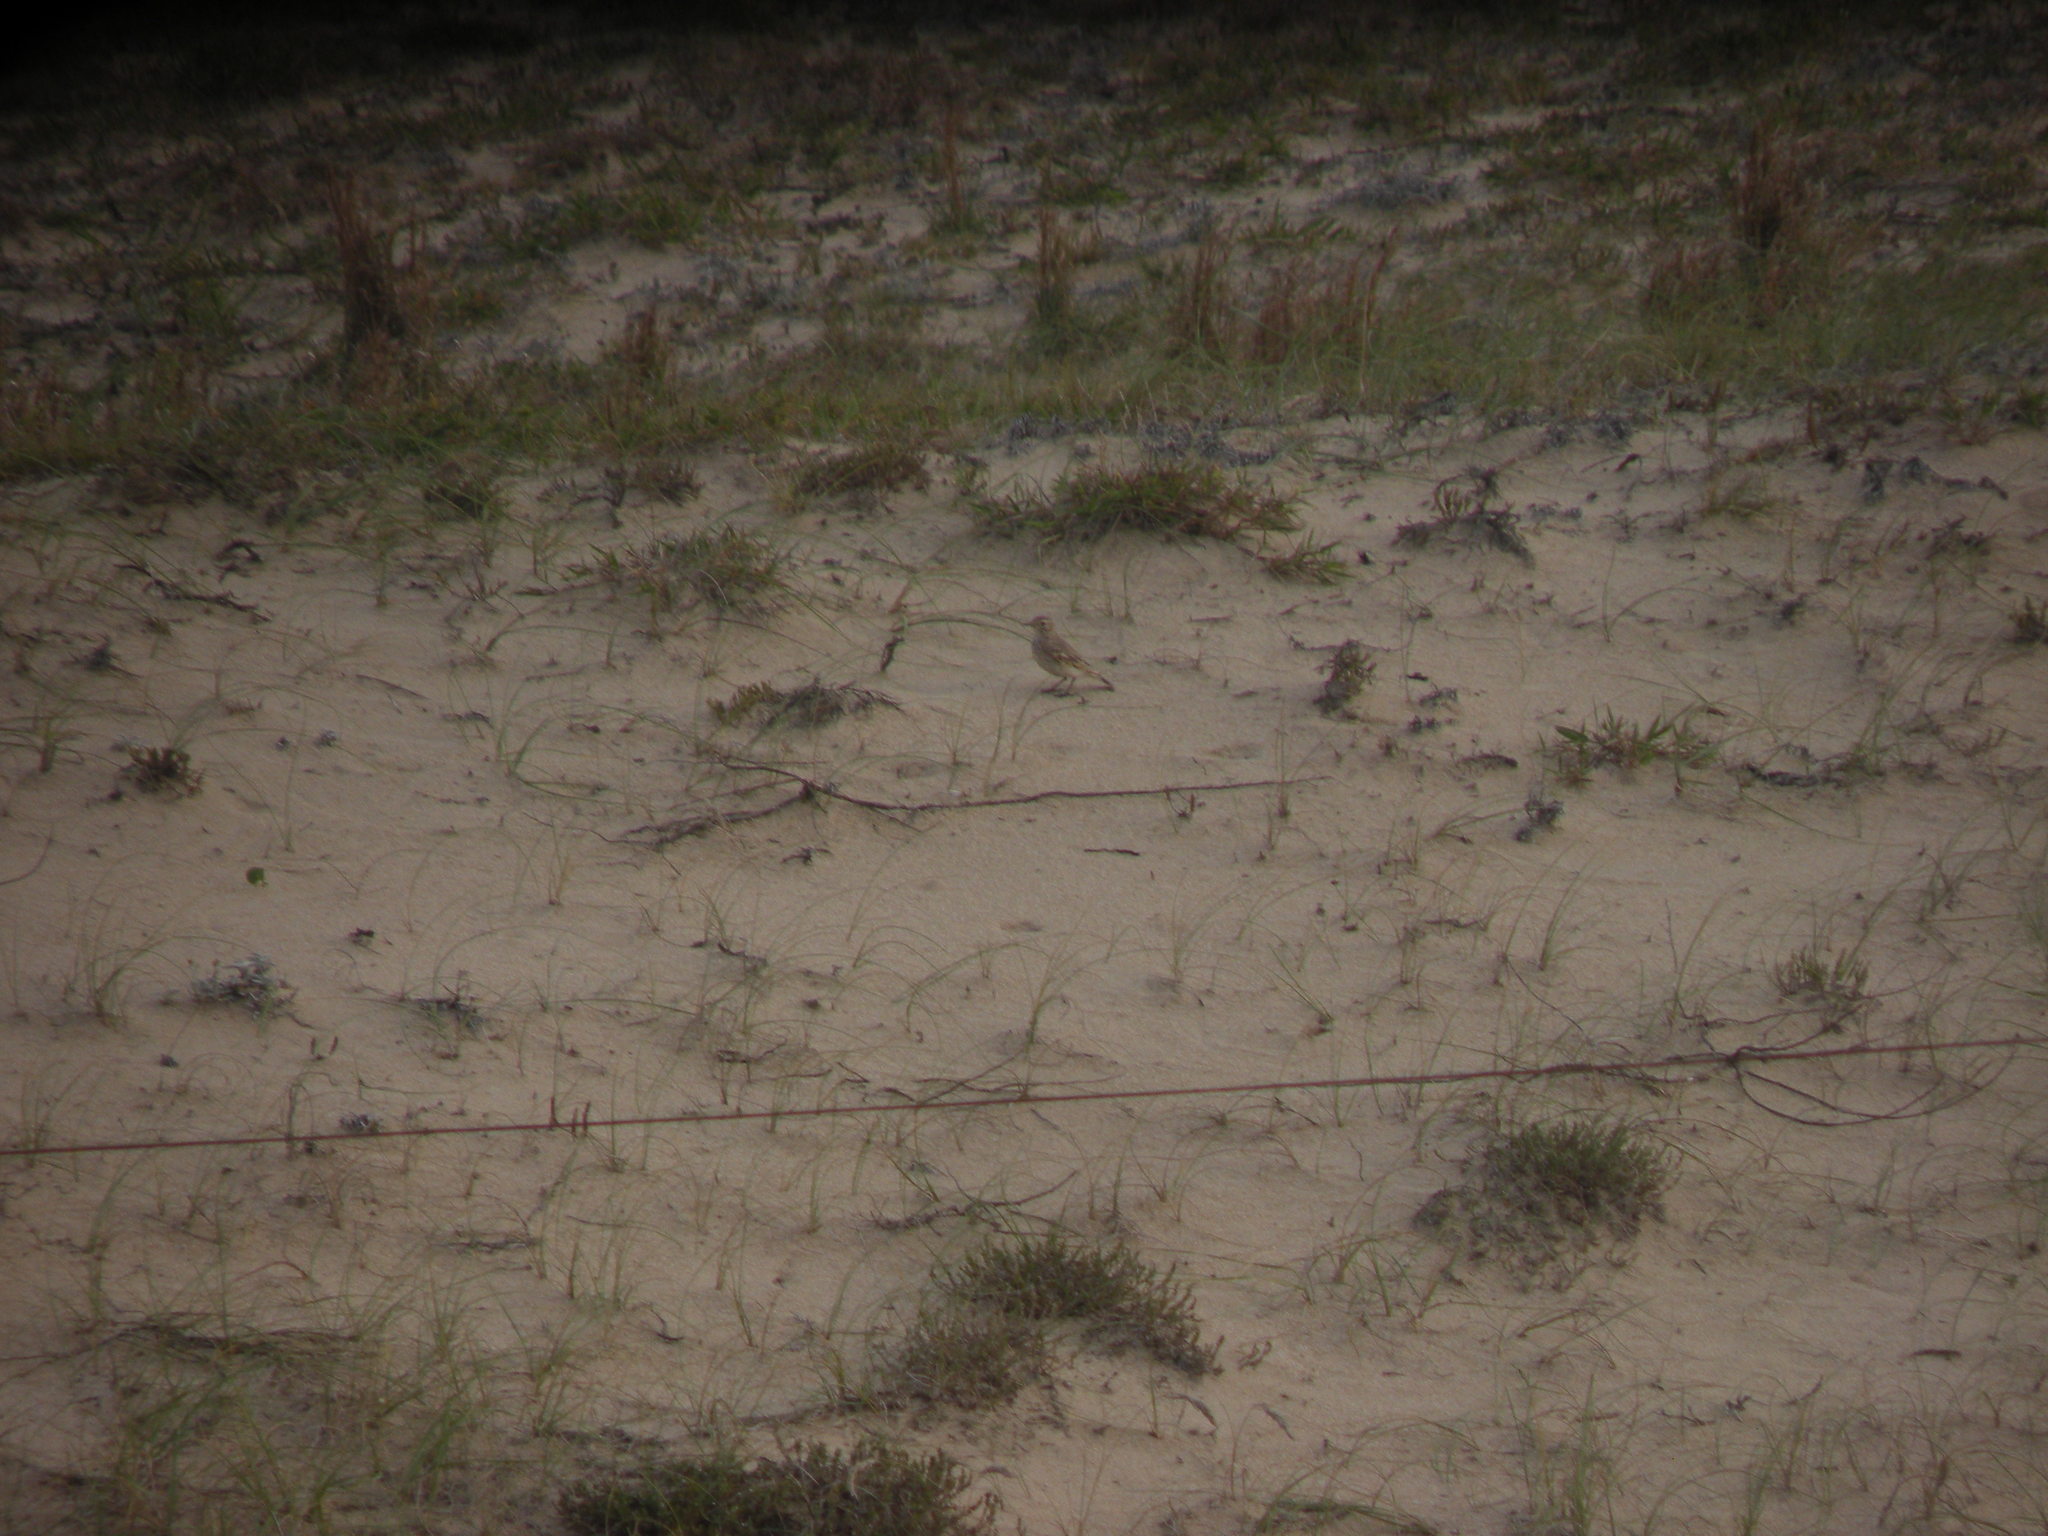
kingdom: Animalia
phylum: Chordata
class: Aves
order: Passeriformes
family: Furnariidae
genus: Geositta
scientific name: Geositta cunicularia
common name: Common miner
